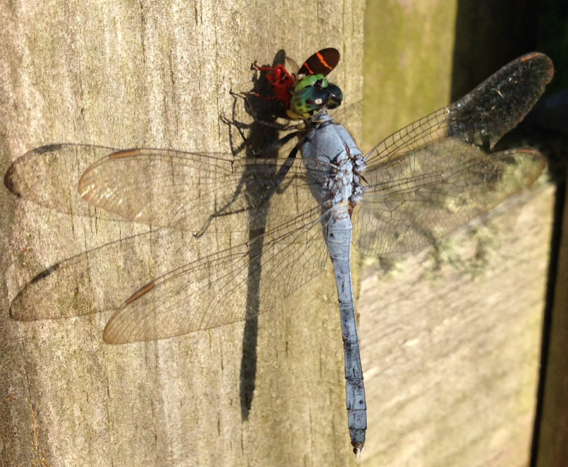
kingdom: Animalia
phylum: Arthropoda
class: Insecta
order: Odonata
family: Libellulidae
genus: Erythemis
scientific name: Erythemis simplicicollis
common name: Eastern pondhawk
